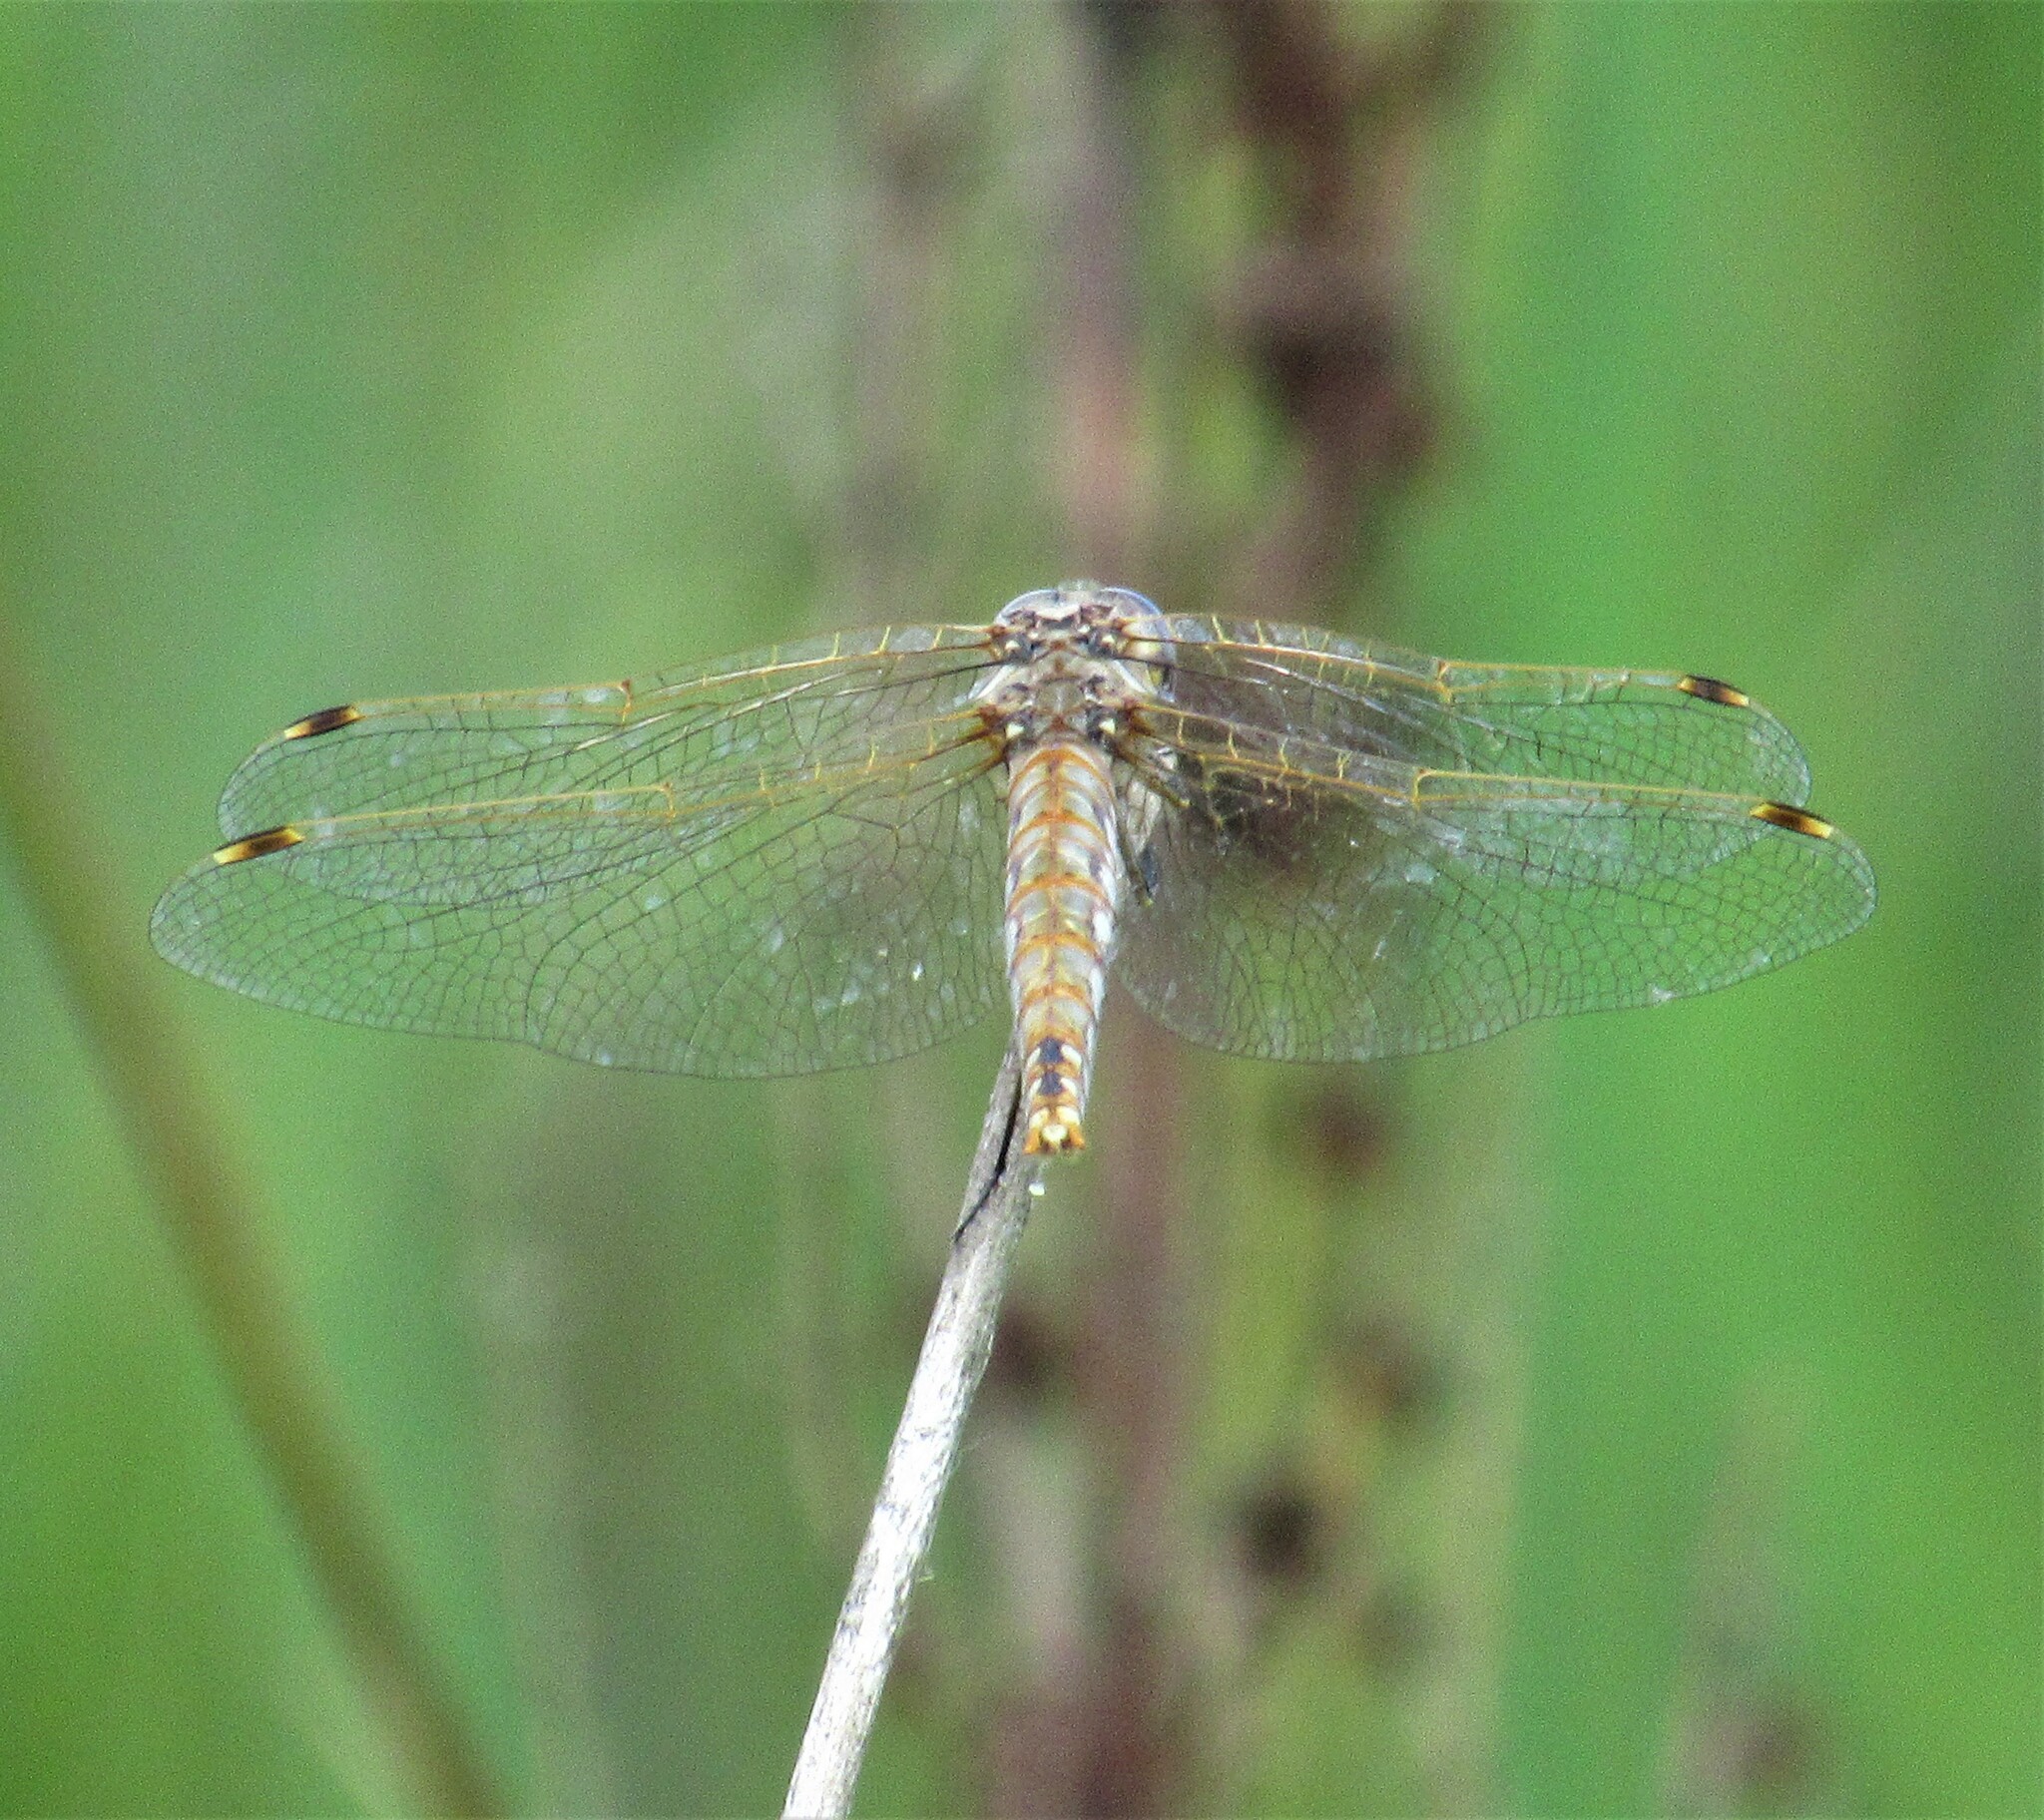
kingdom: Animalia
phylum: Arthropoda
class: Insecta
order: Odonata
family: Libellulidae
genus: Sympetrum
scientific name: Sympetrum corruptum
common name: Variegated meadowhawk
